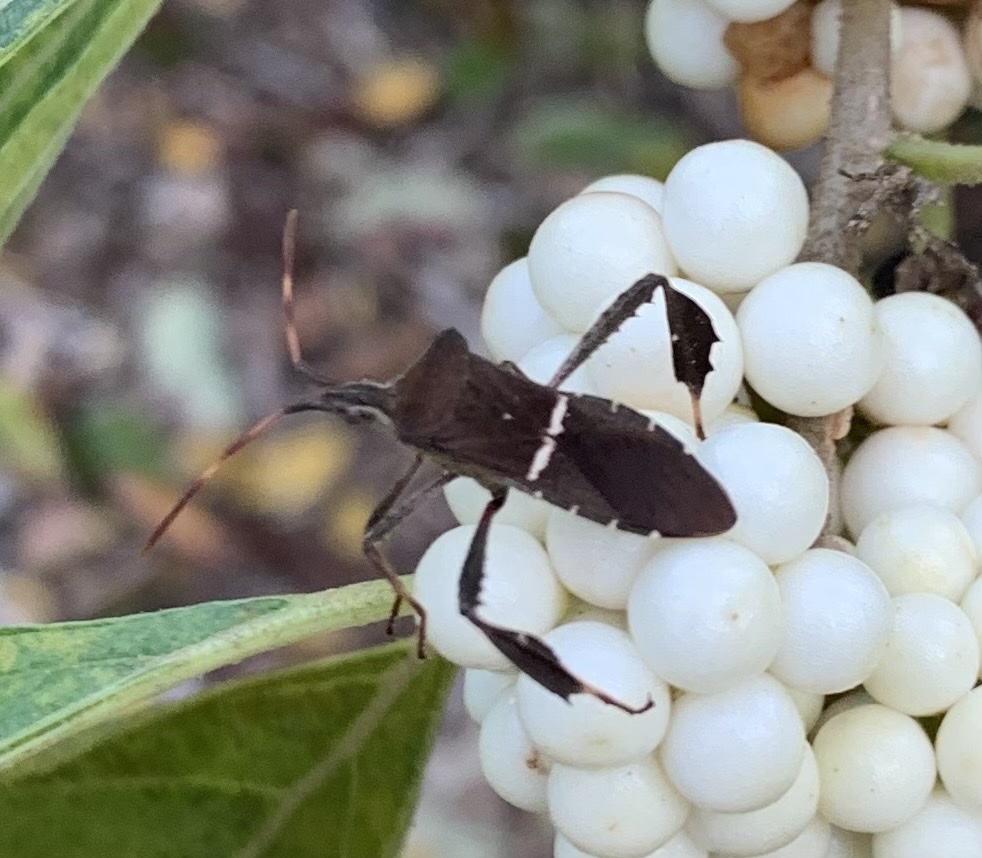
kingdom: Animalia
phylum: Arthropoda
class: Insecta
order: Hemiptera
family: Coreidae
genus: Leptoglossus
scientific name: Leptoglossus phyllopus
